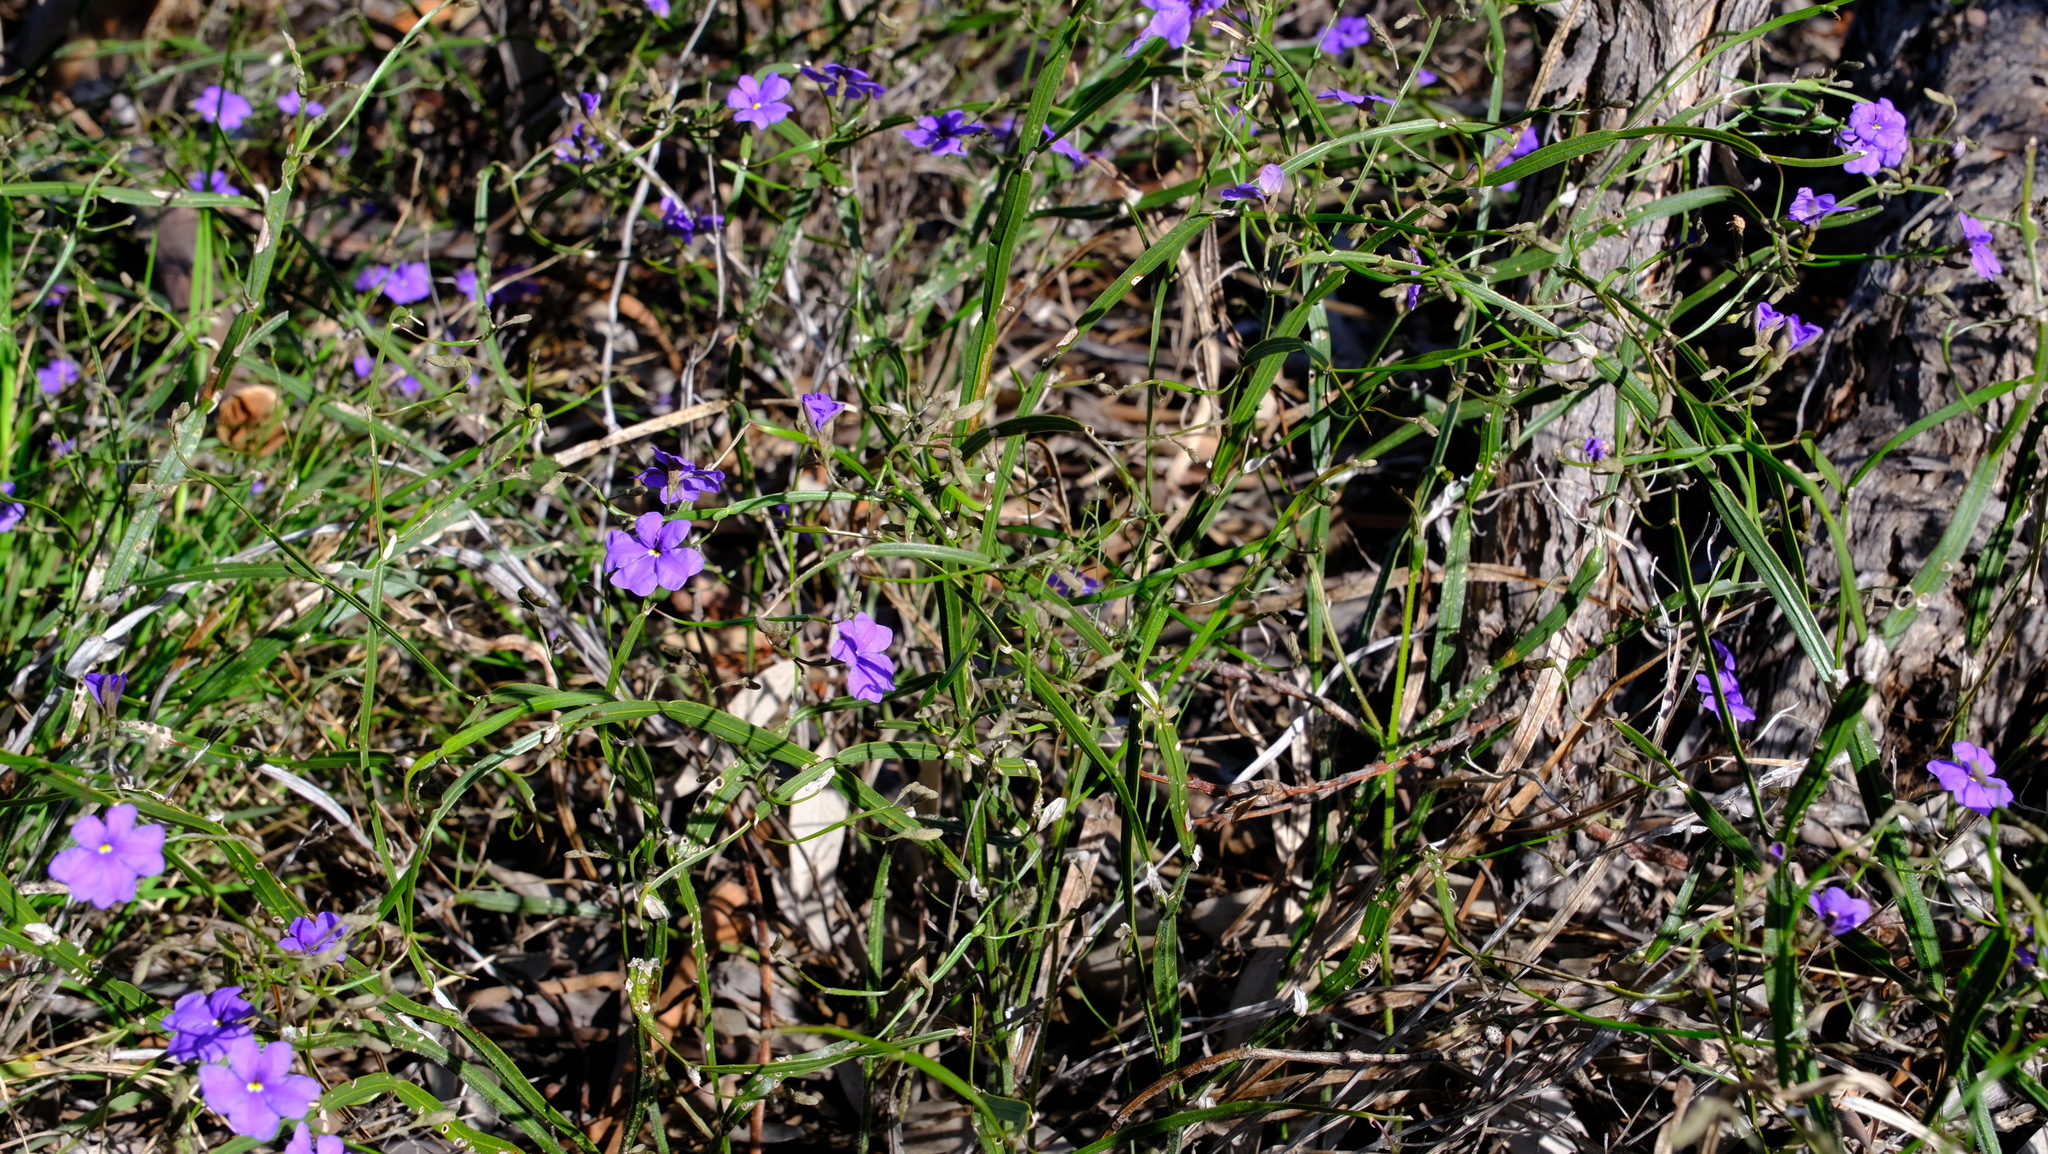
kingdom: Plantae
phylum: Tracheophyta
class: Magnoliopsida
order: Asterales
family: Goodeniaceae
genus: Dampiera
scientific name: Dampiera lindleyi
